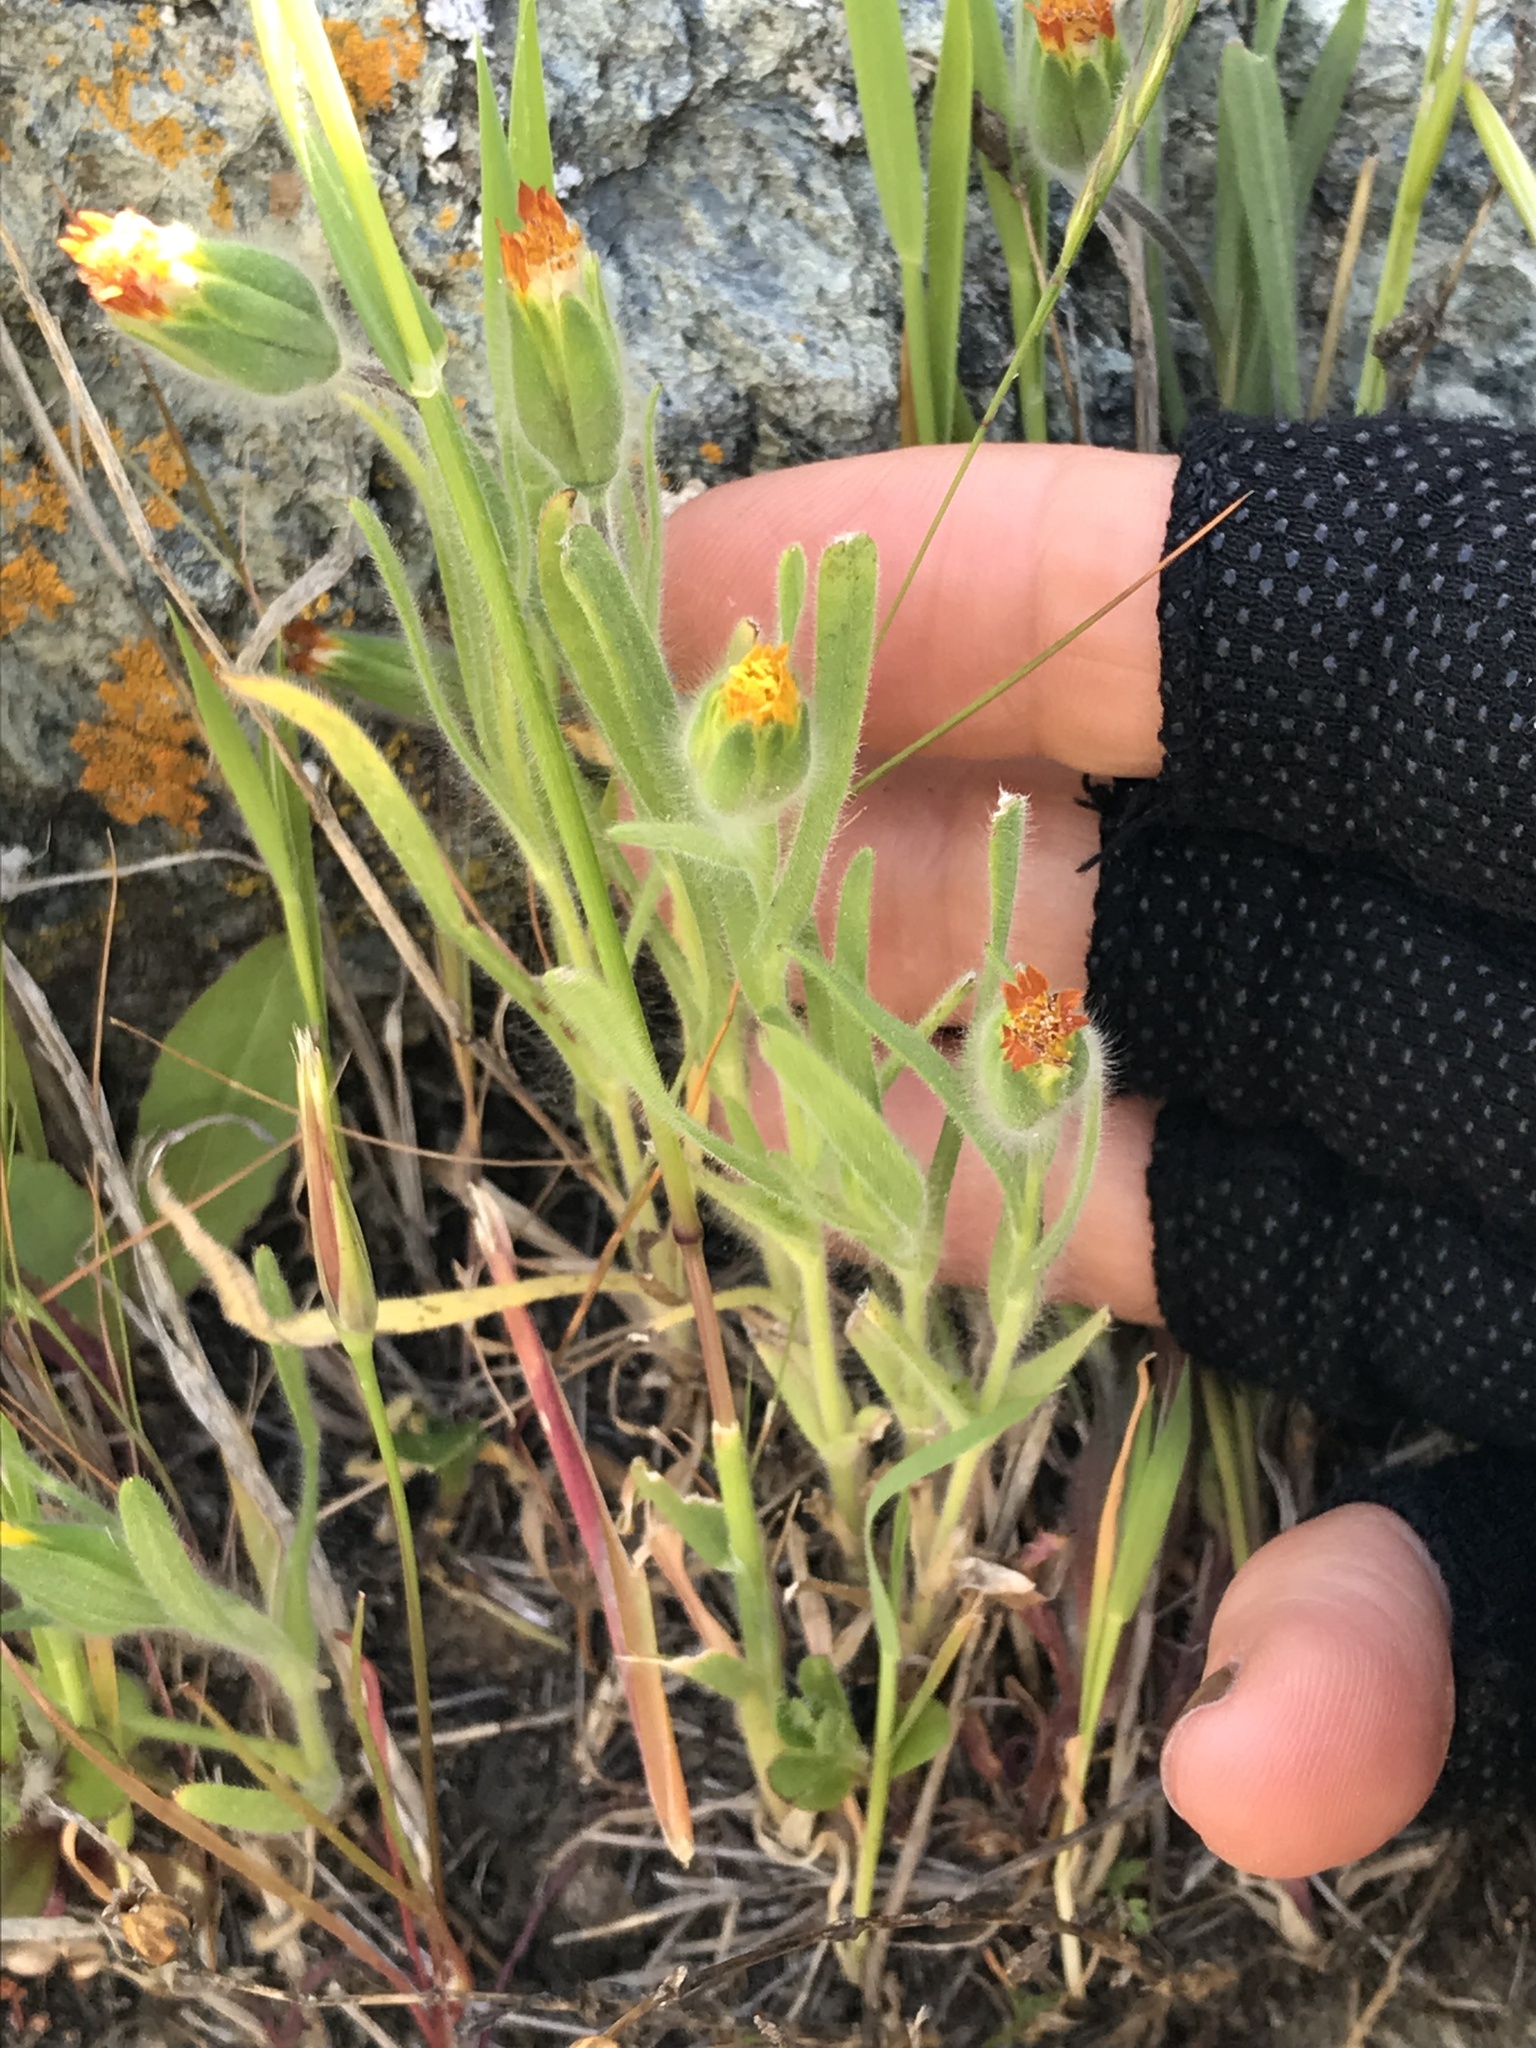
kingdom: Plantae
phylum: Tracheophyta
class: Magnoliopsida
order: Asterales
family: Asteraceae
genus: Achyrachaena
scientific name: Achyrachaena mollis
